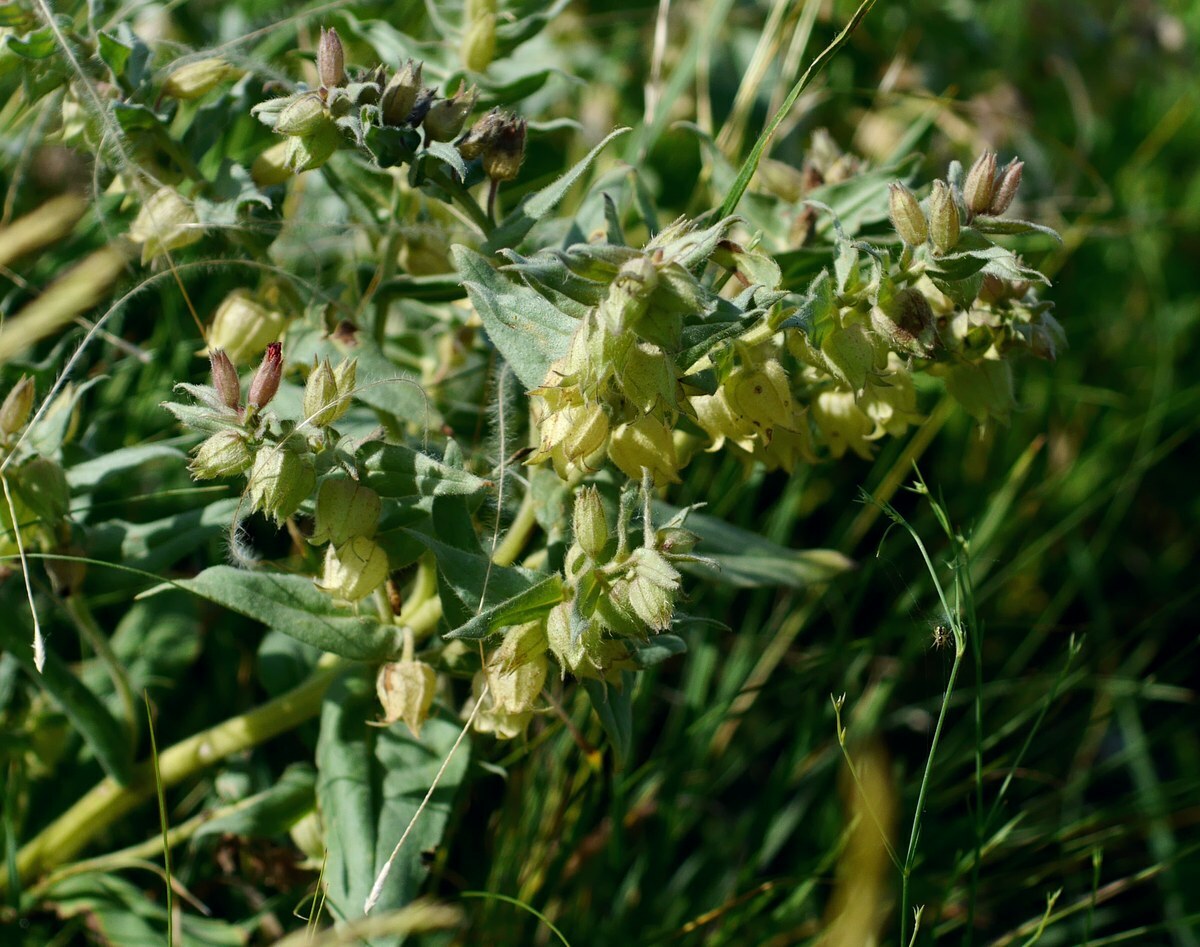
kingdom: Plantae
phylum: Tracheophyta
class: Magnoliopsida
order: Boraginales
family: Boraginaceae
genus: Nonea
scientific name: Nonea pulla
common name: Brown nonea
